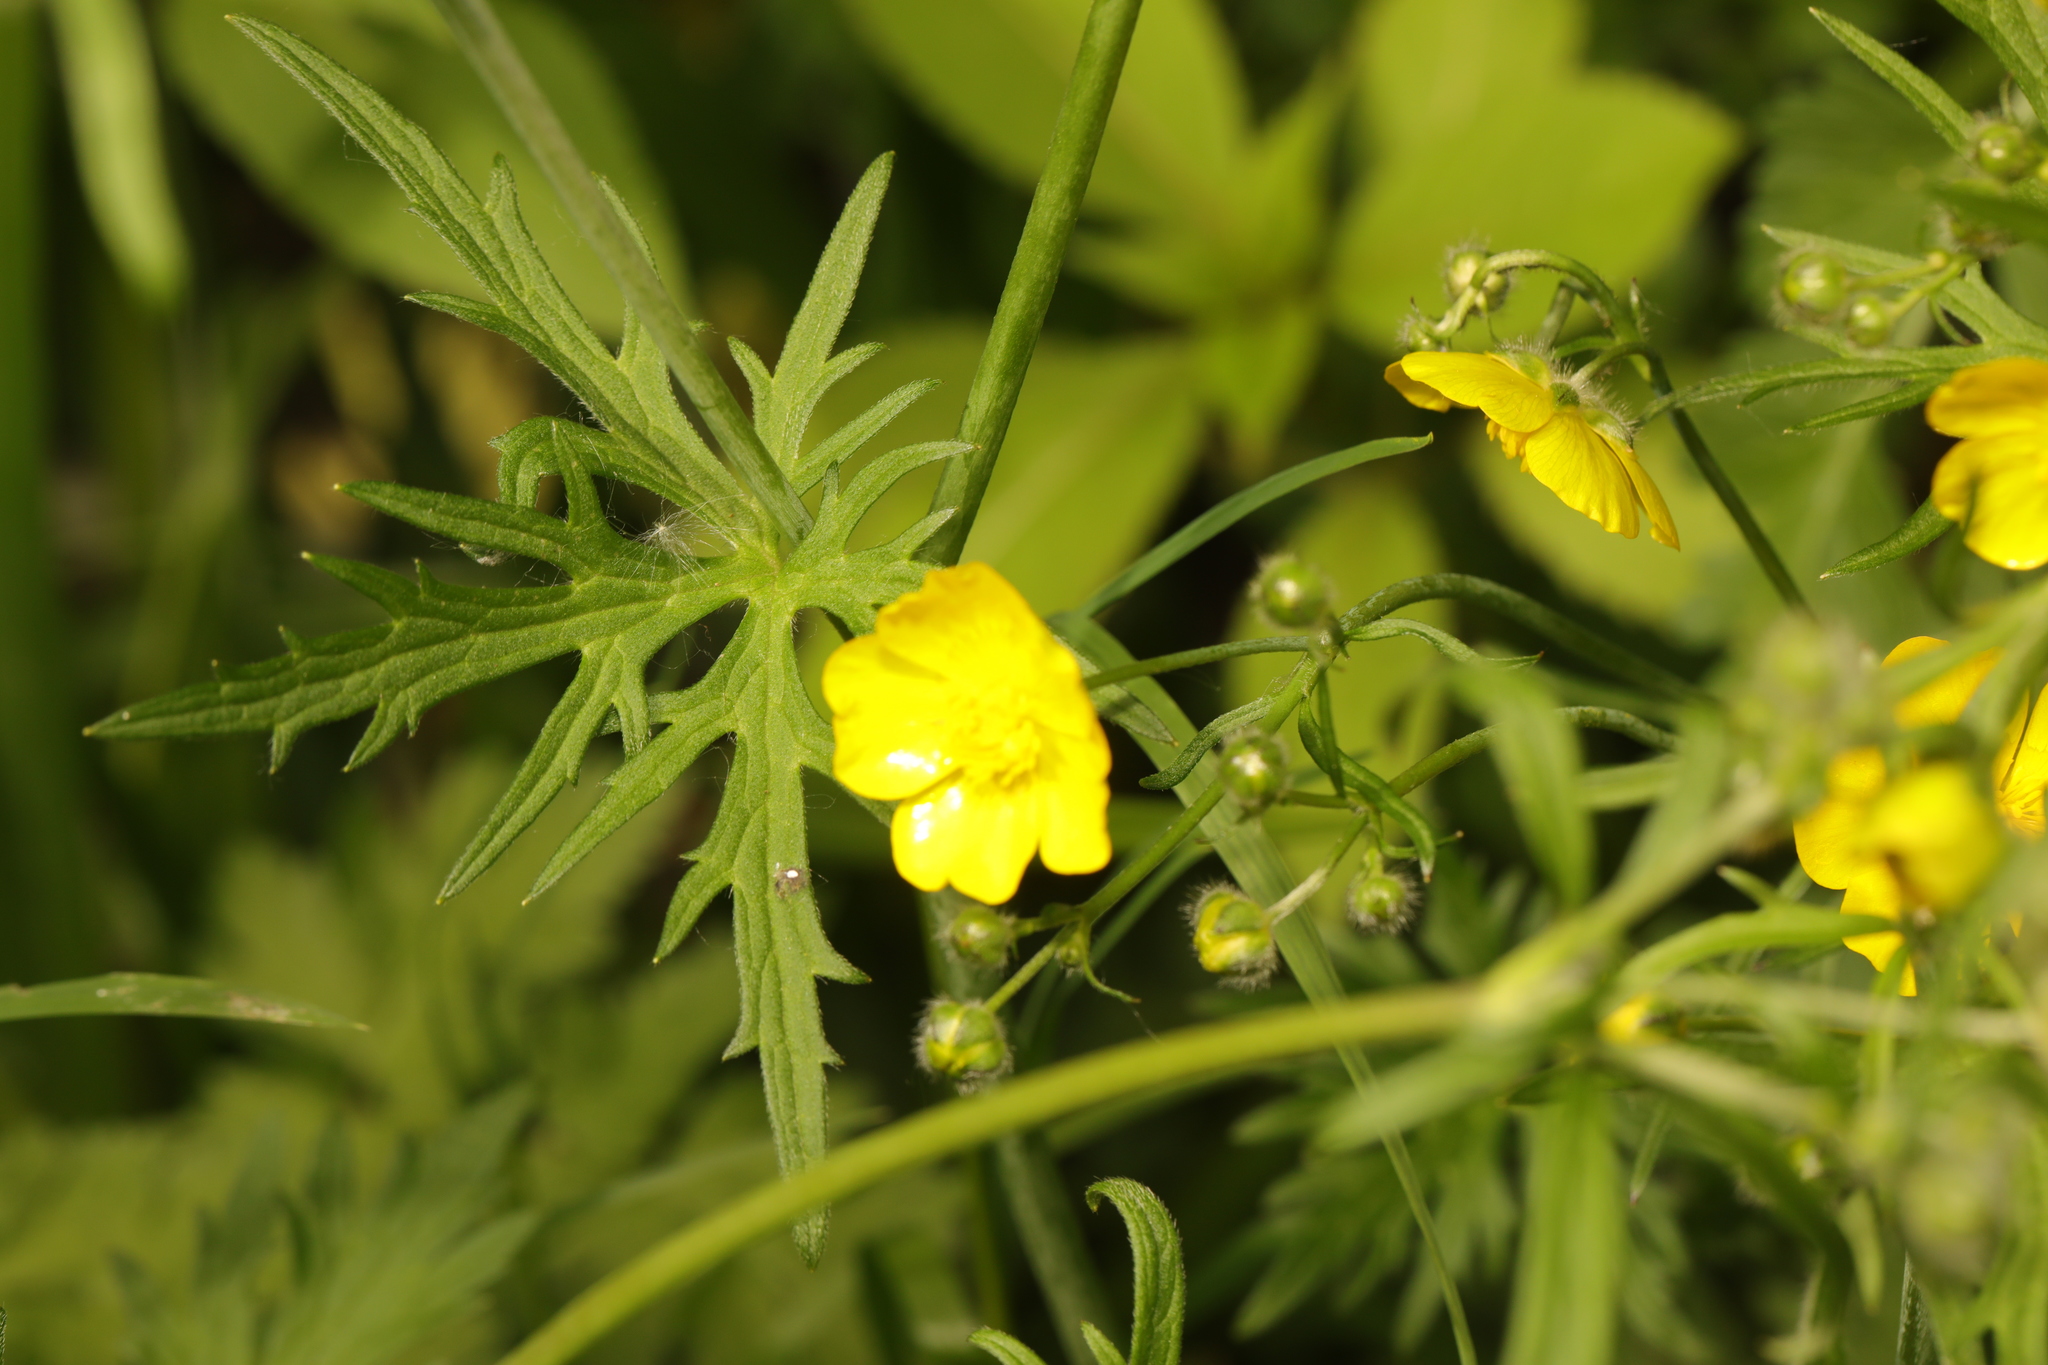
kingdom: Plantae
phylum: Tracheophyta
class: Magnoliopsida
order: Ranunculales
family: Ranunculaceae
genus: Ranunculus
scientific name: Ranunculus acris
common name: Meadow buttercup
